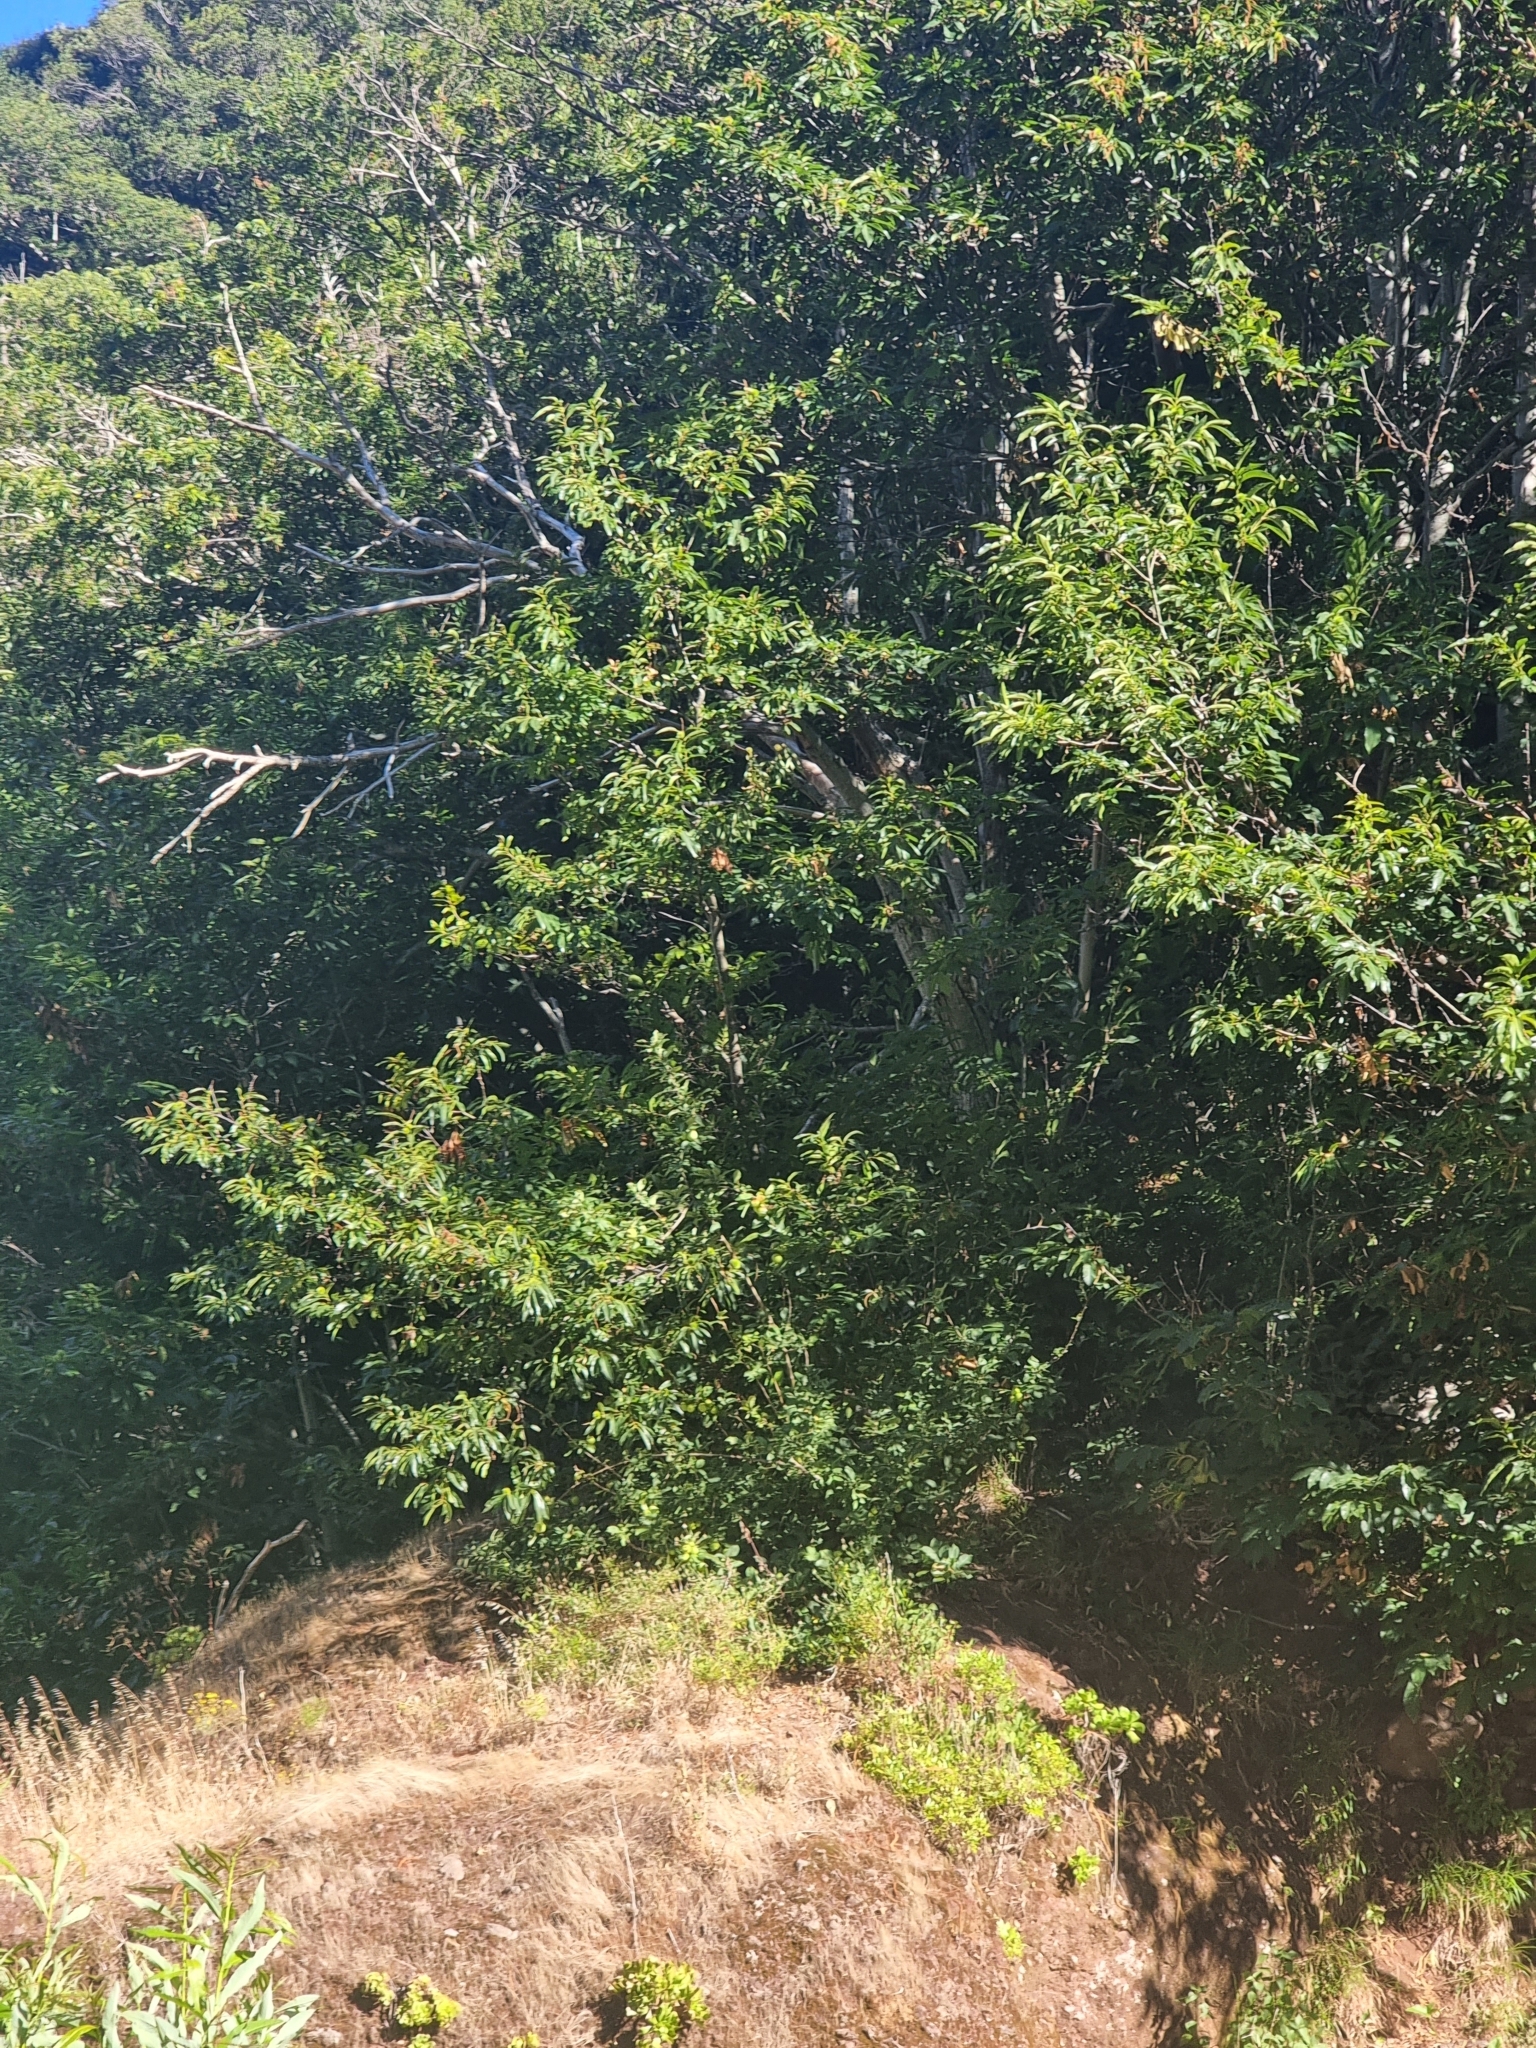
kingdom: Plantae
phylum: Tracheophyta
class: Magnoliopsida
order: Fagales
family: Fagaceae
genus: Castanea
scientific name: Castanea sativa
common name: Sweet chestnut
